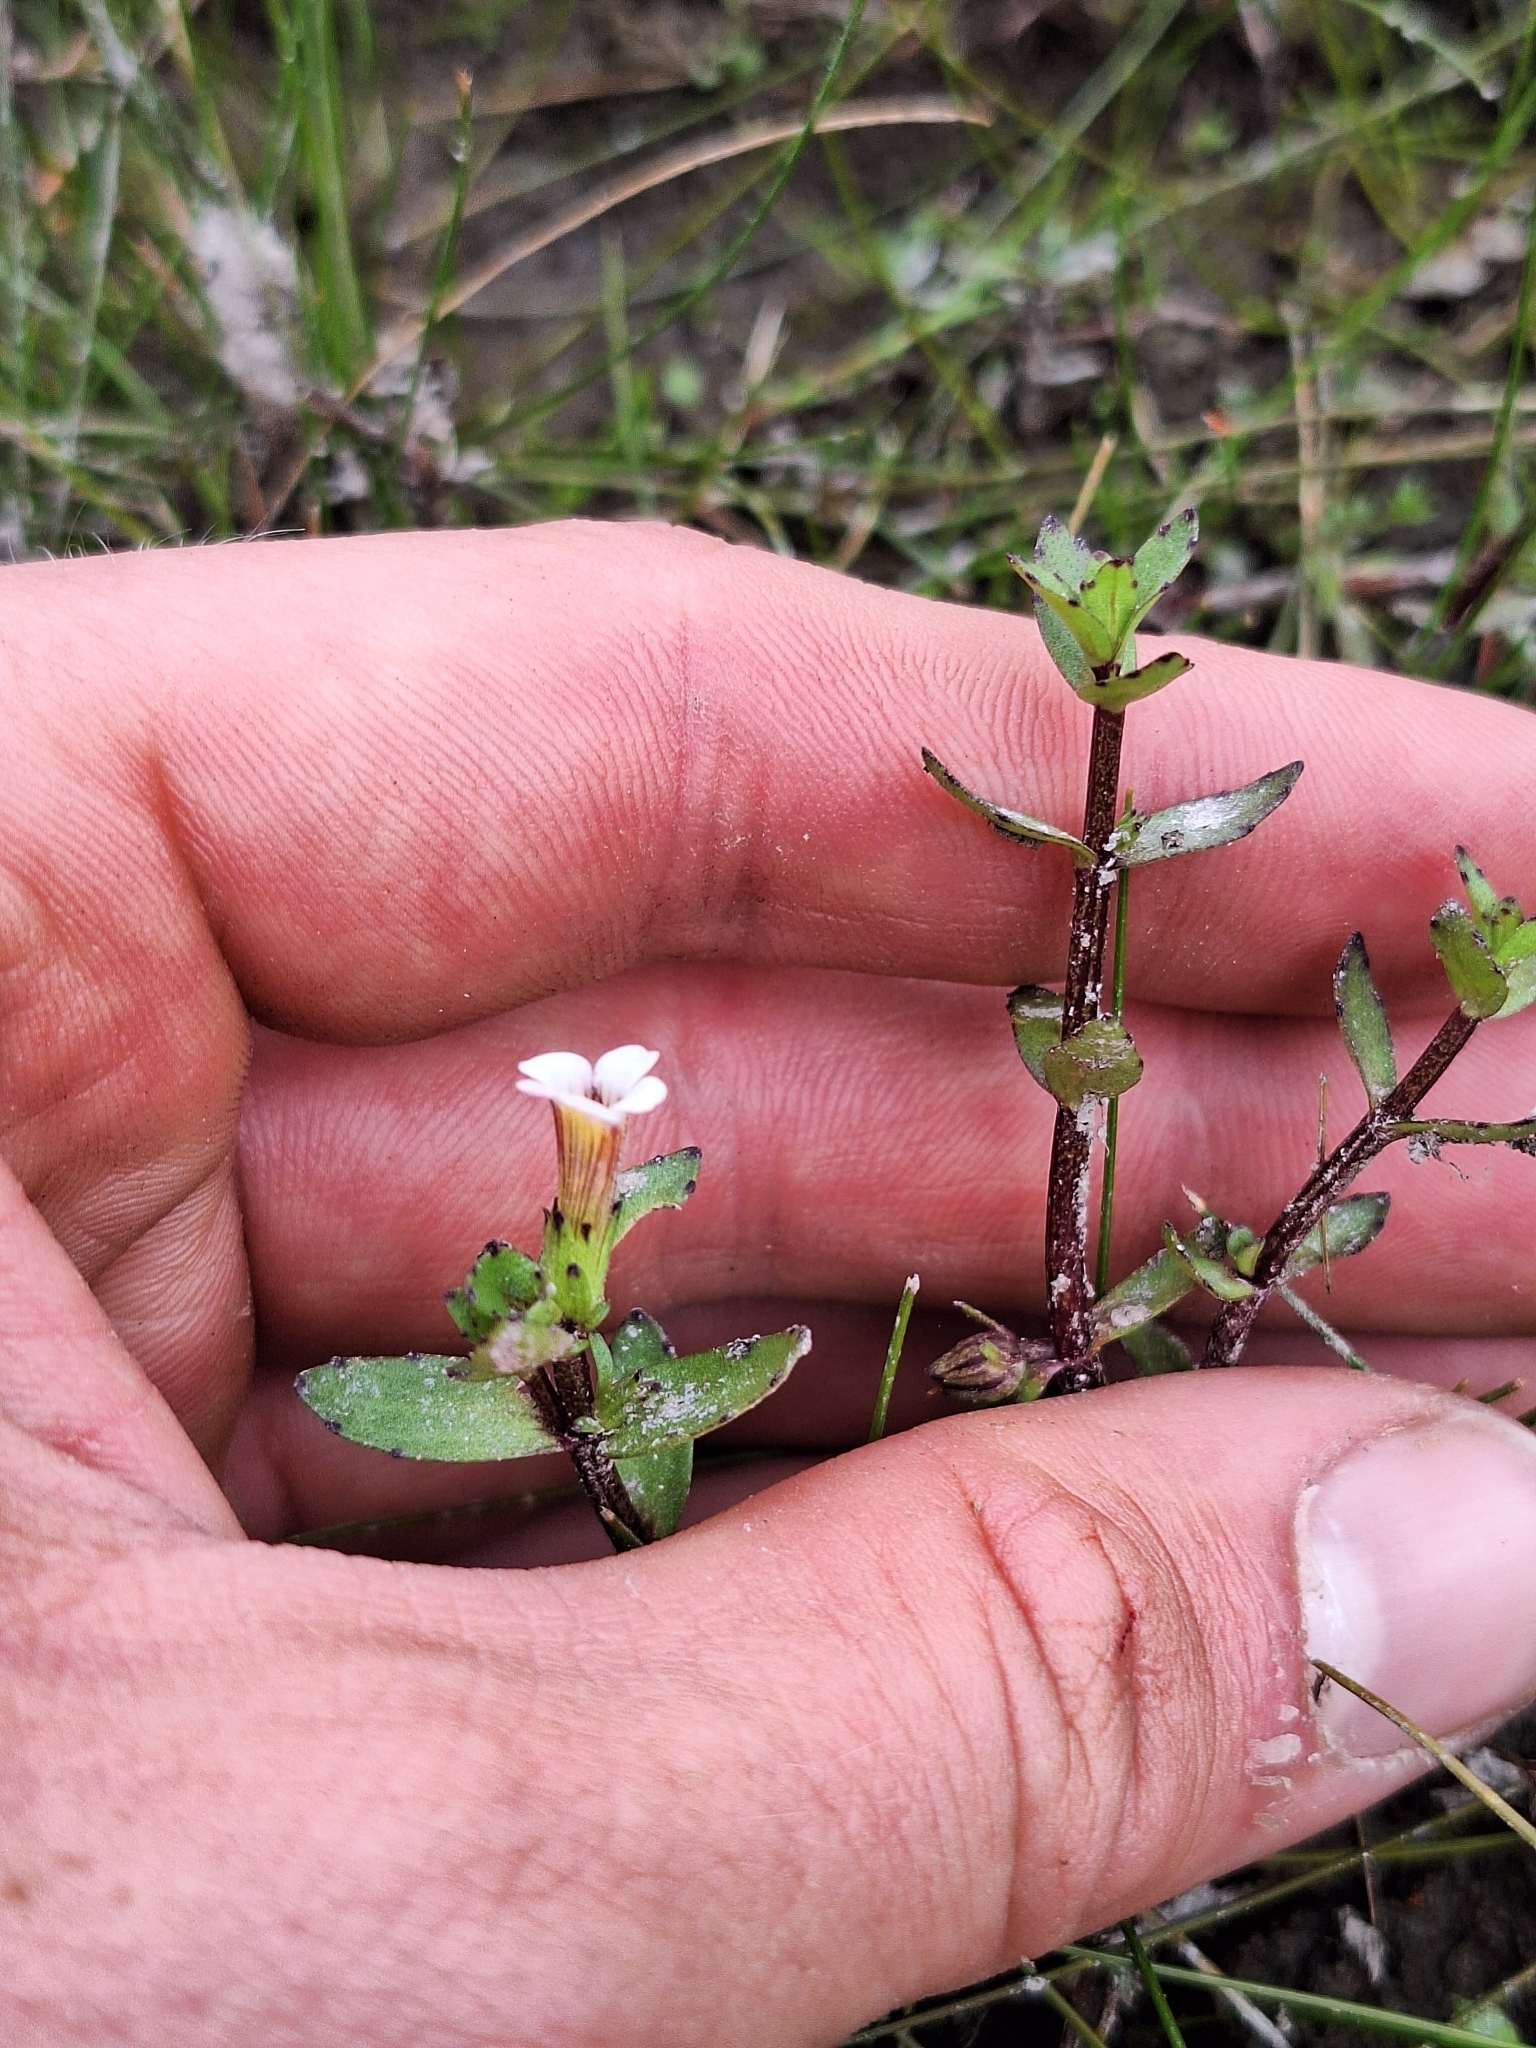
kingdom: Plantae
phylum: Tracheophyta
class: Magnoliopsida
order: Lamiales
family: Plantaginaceae
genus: Gratiola
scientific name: Gratiola sexdentata
